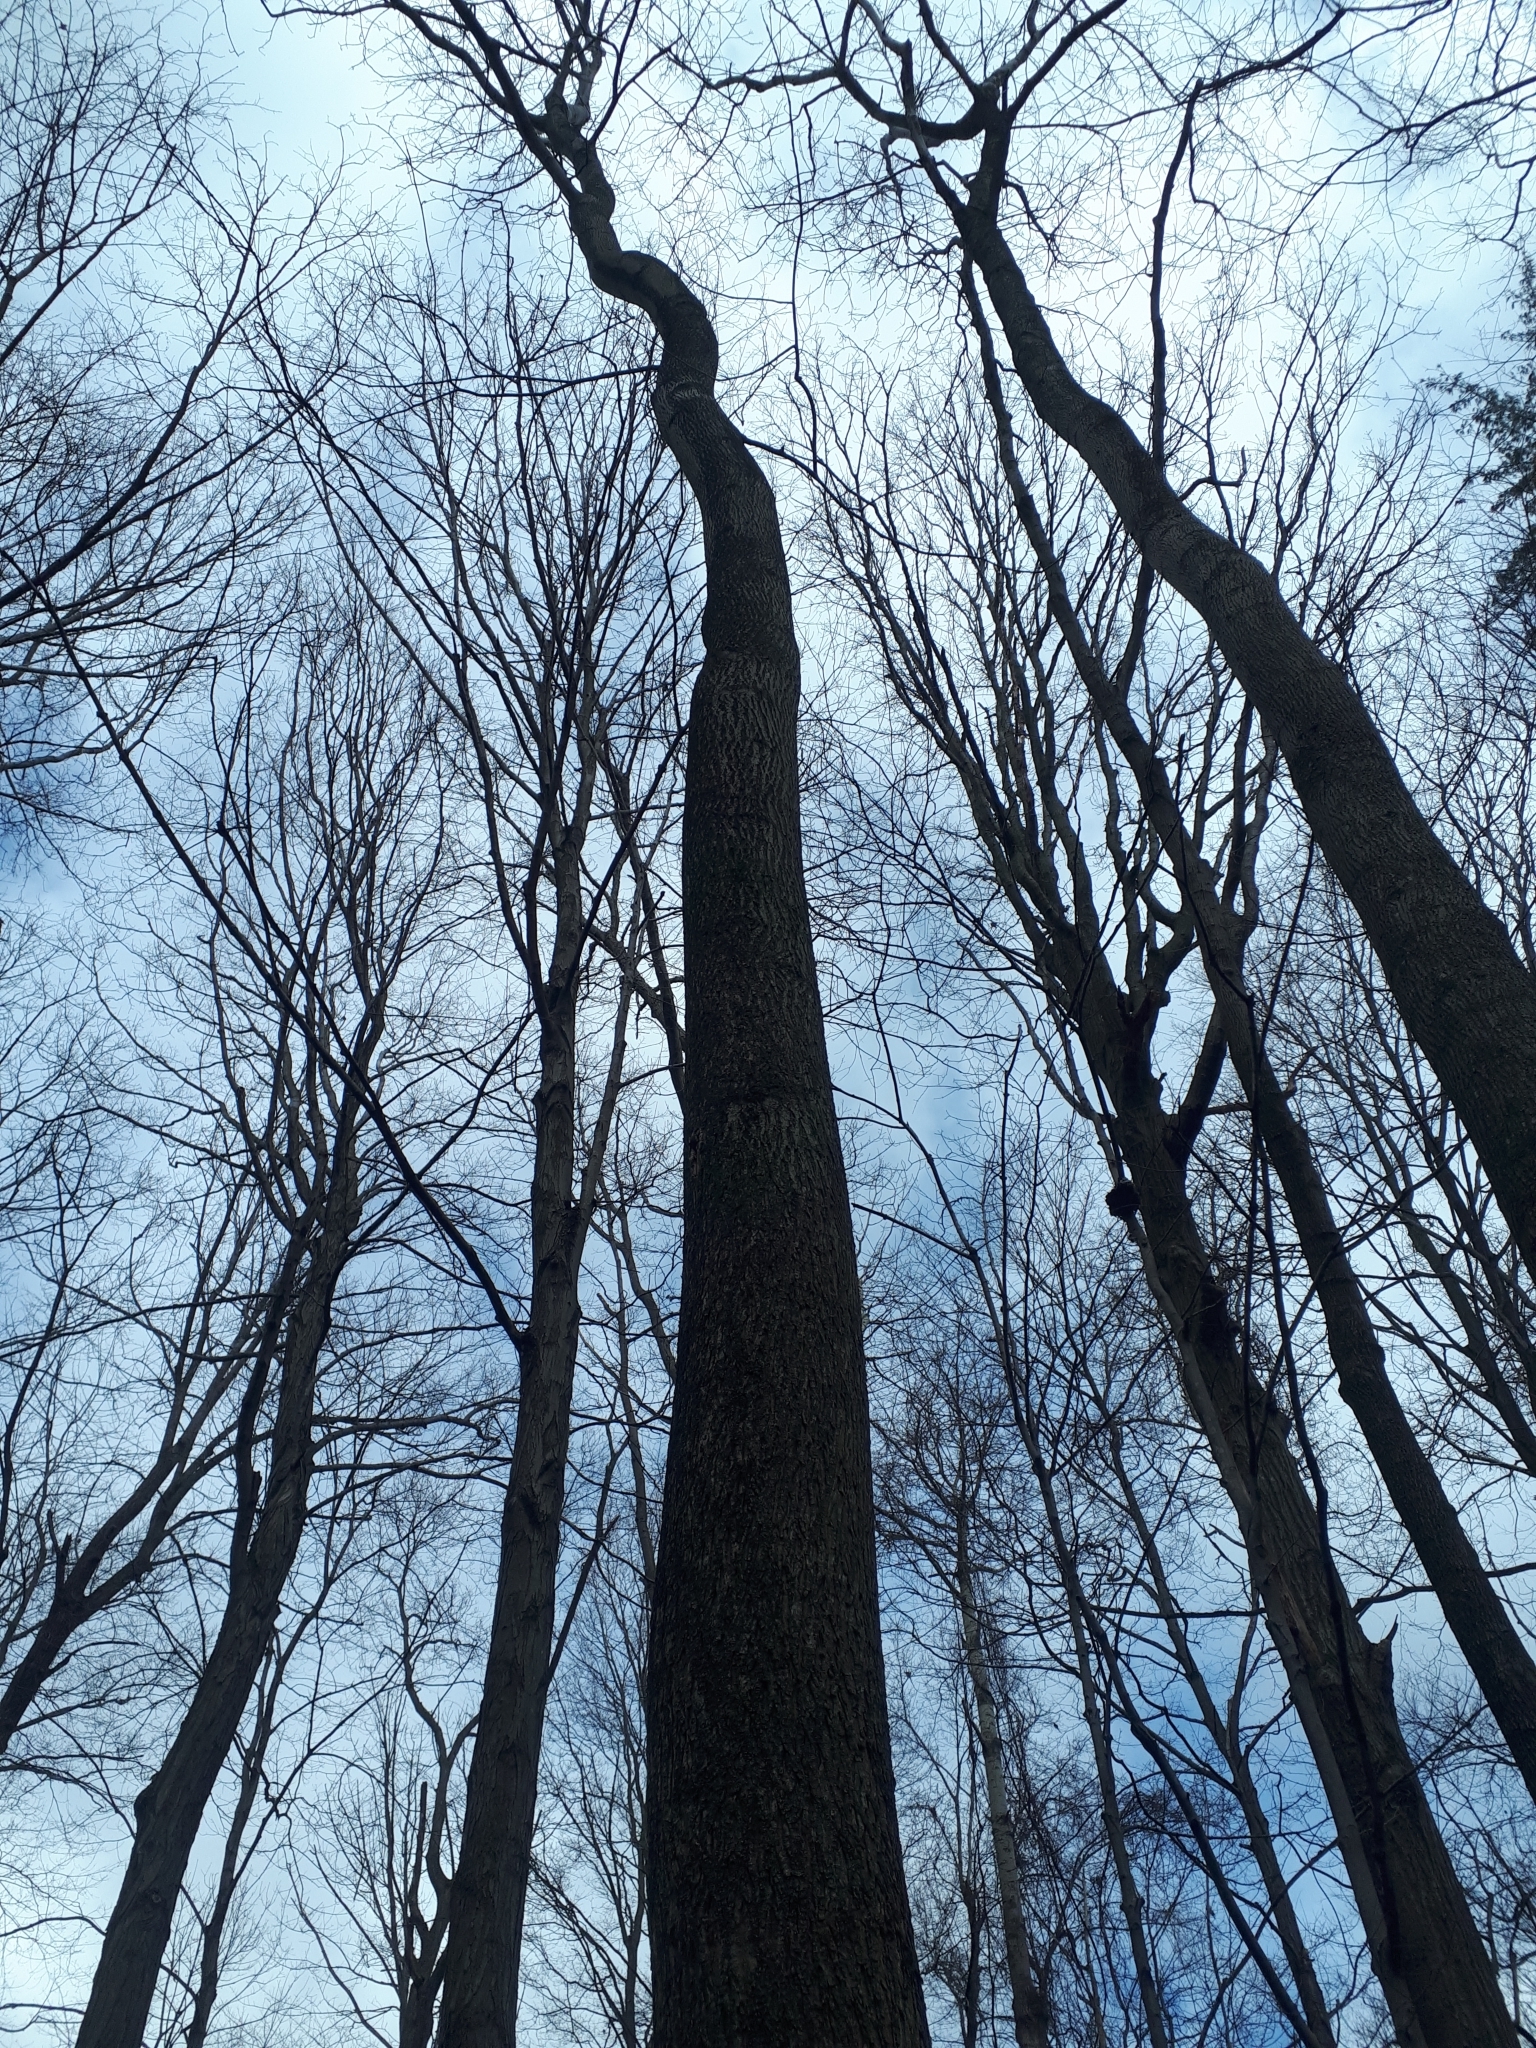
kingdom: Plantae
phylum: Tracheophyta
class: Magnoliopsida
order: Fagales
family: Juglandaceae
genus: Carya
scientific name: Carya cordiformis
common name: Bitternut hickory
